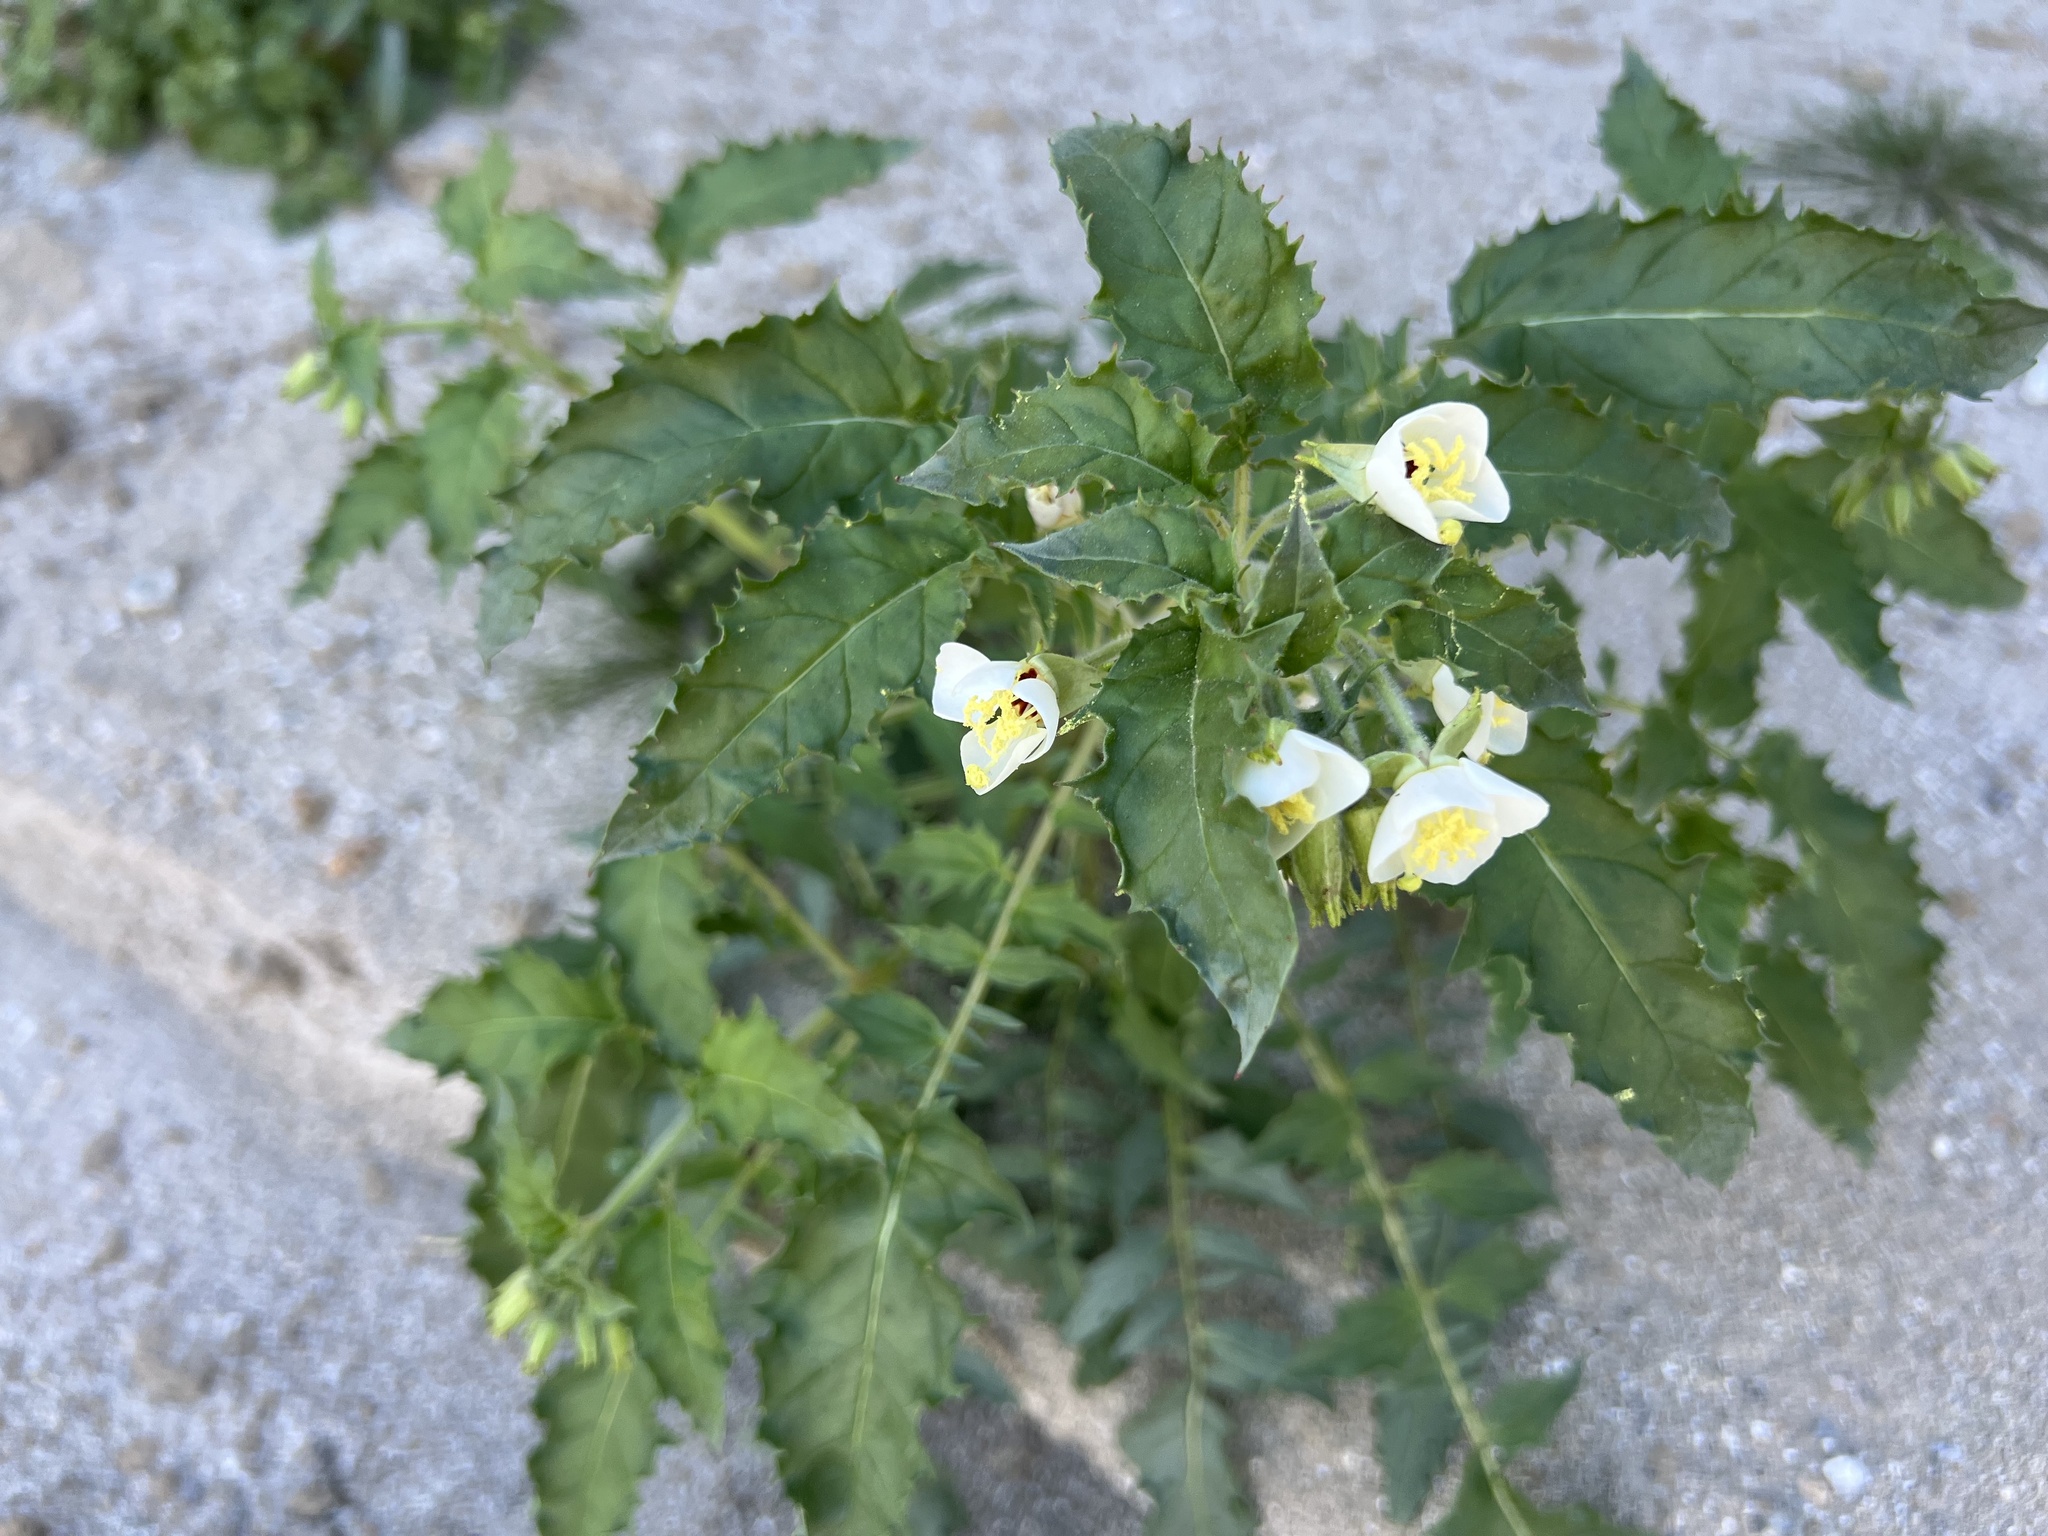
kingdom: Plantae
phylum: Tracheophyta
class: Magnoliopsida
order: Myrtales
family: Onagraceae
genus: Chylismia
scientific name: Chylismia claviformis
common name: Browneyes
